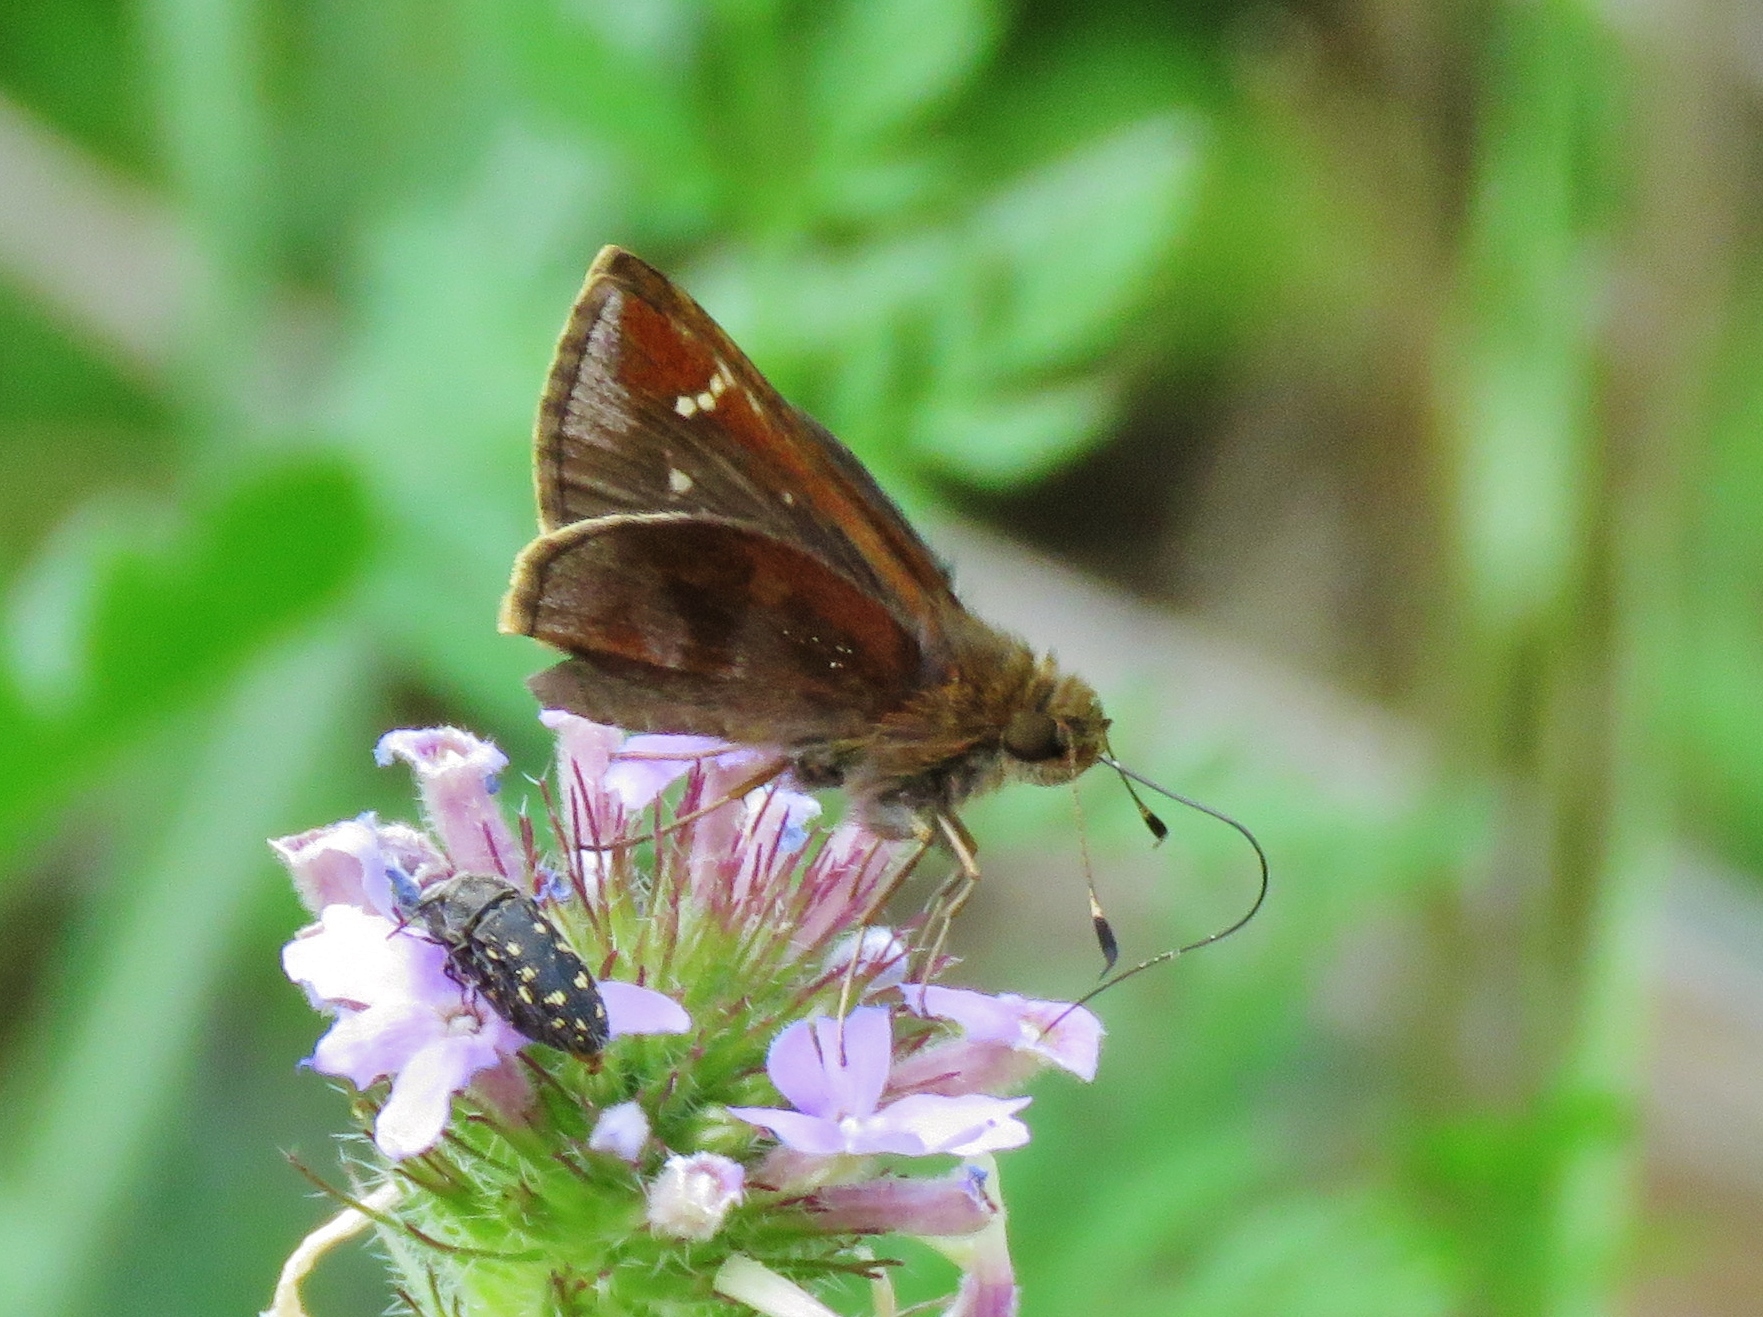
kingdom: Animalia
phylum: Arthropoda
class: Insecta
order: Lepidoptera
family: Hesperiidae
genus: Lerema
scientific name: Lerema accius
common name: Clouded skipper
